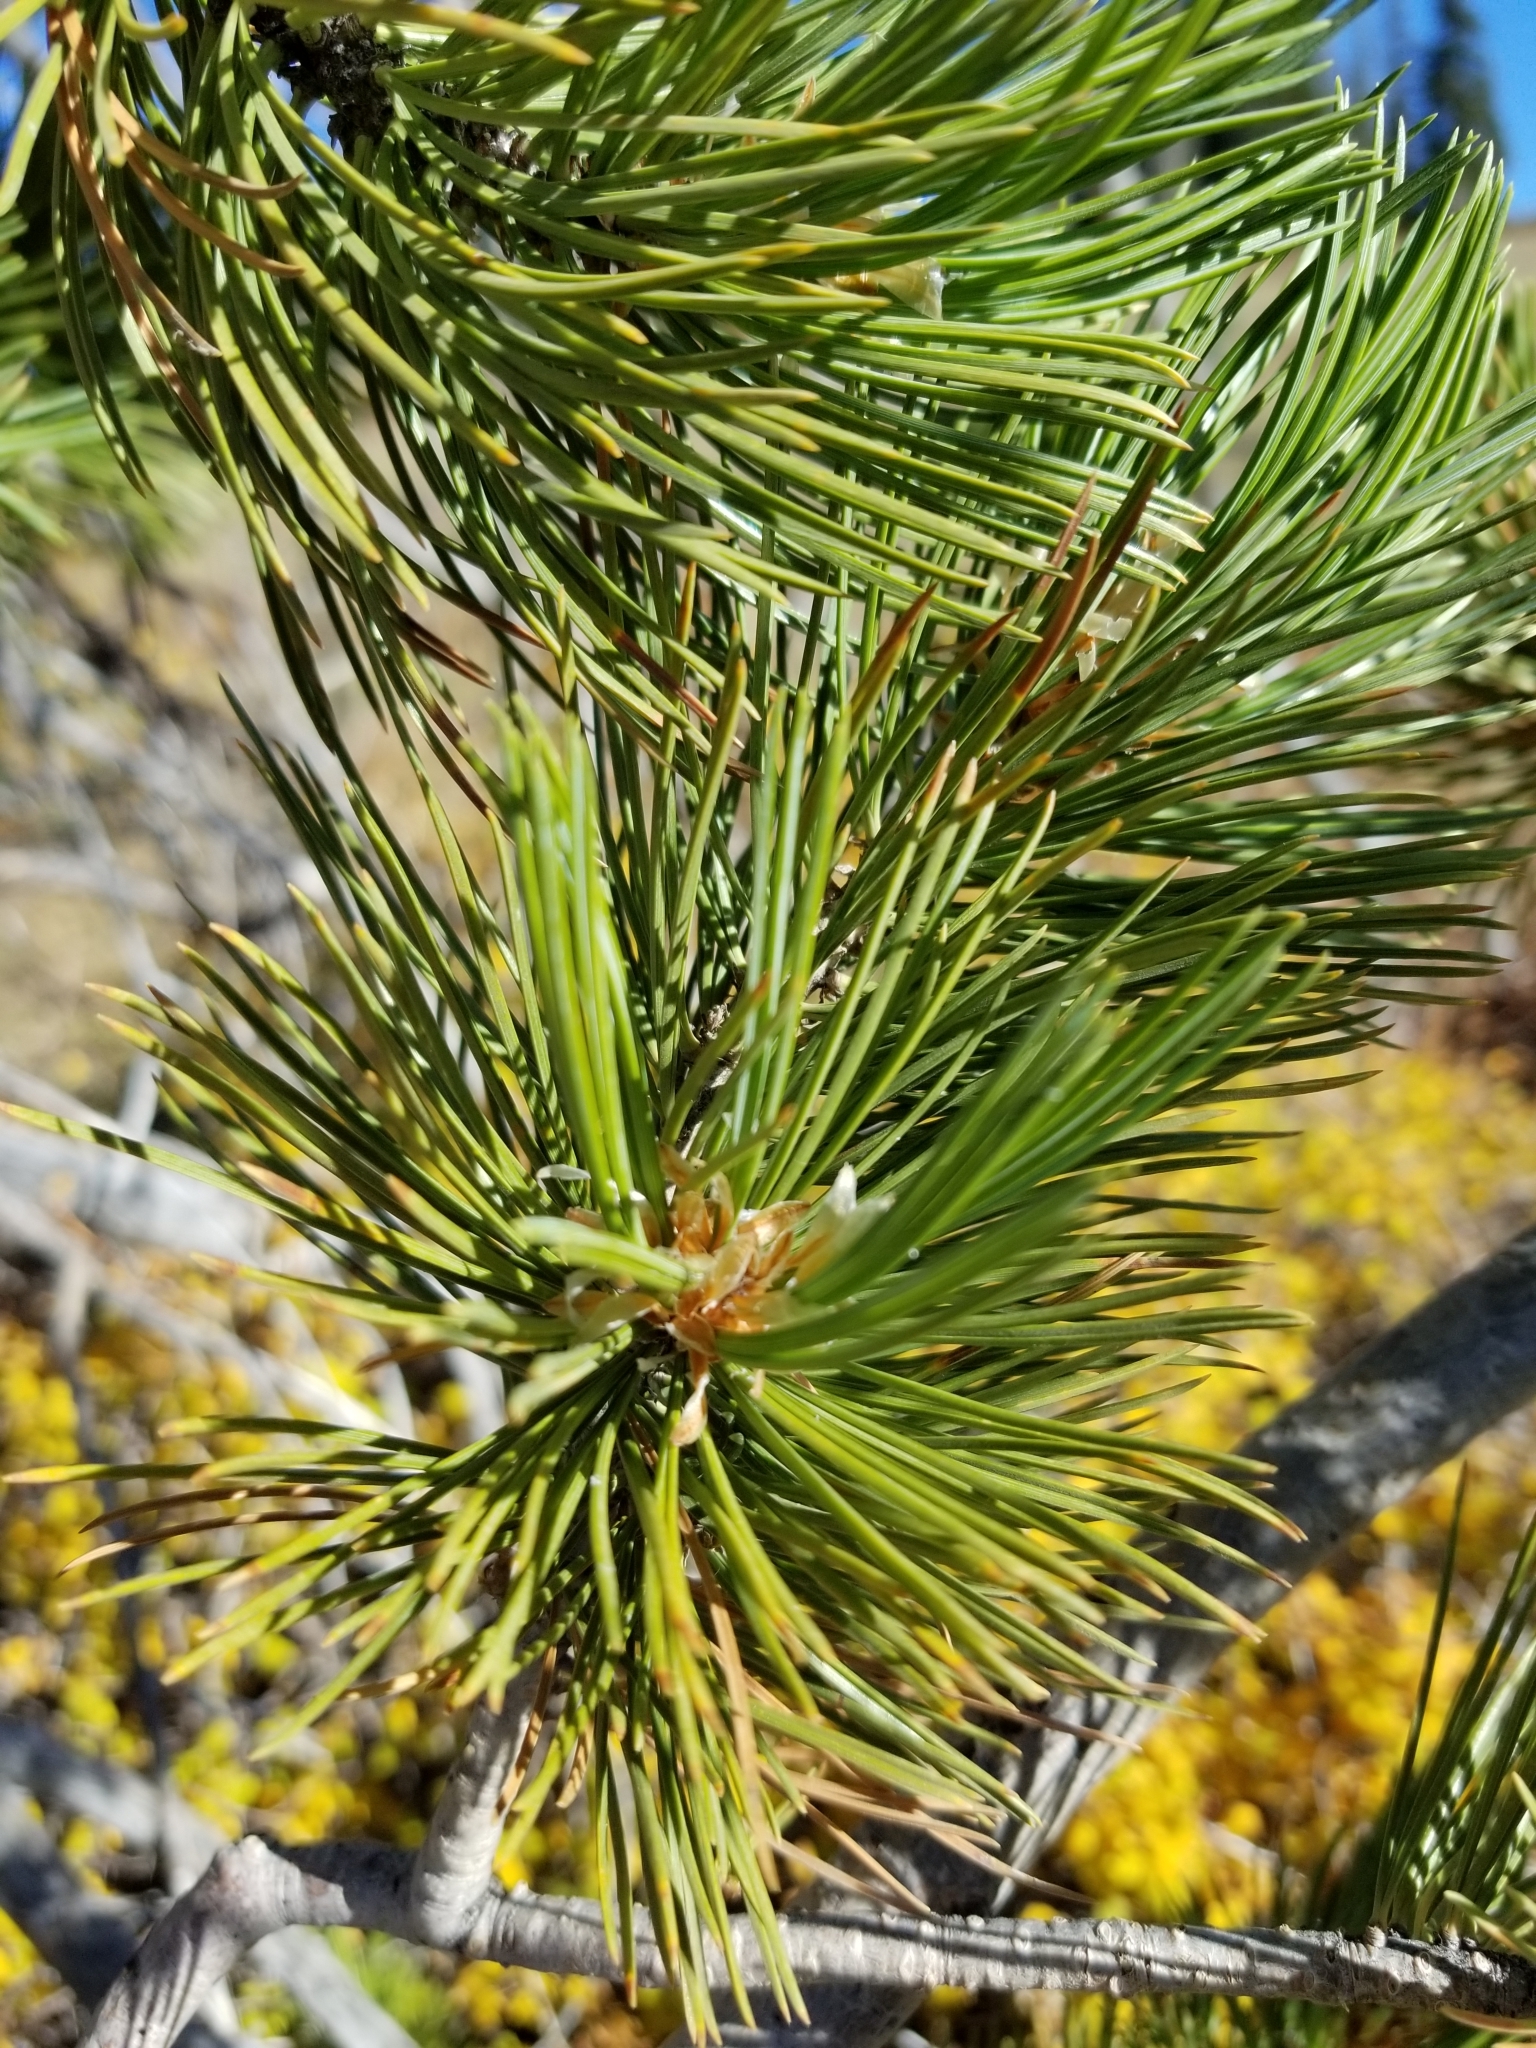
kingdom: Plantae
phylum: Tracheophyta
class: Pinopsida
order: Pinales
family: Pinaceae
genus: Pinus
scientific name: Pinus flexilis
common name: Limber pine
